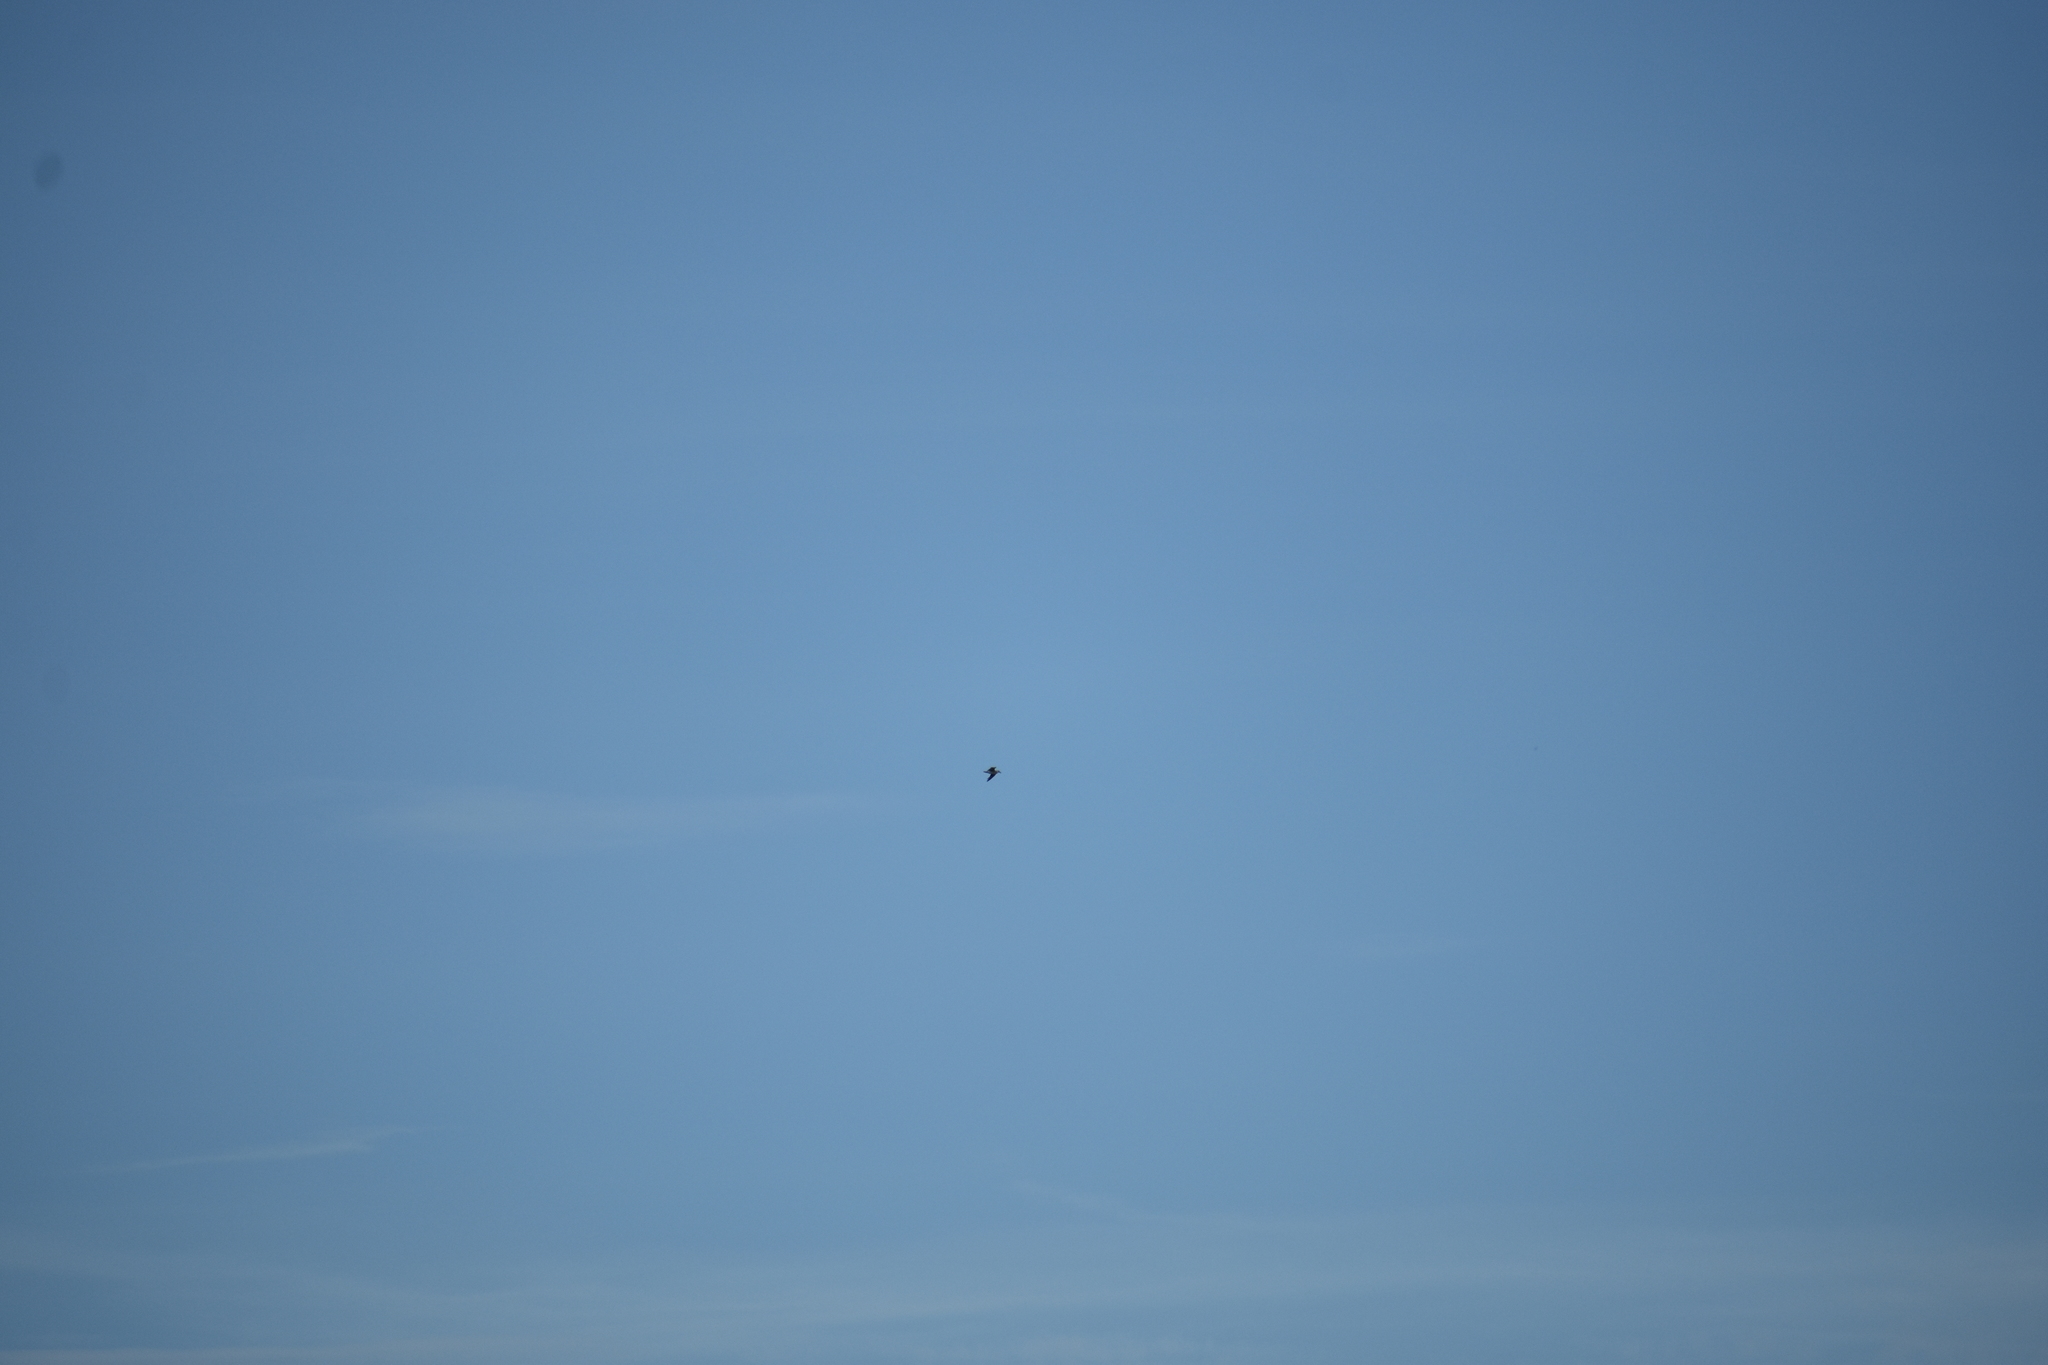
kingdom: Animalia
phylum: Chordata
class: Aves
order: Charadriiformes
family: Laridae
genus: Leucophaeus
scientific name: Leucophaeus atricilla
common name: Laughing gull
